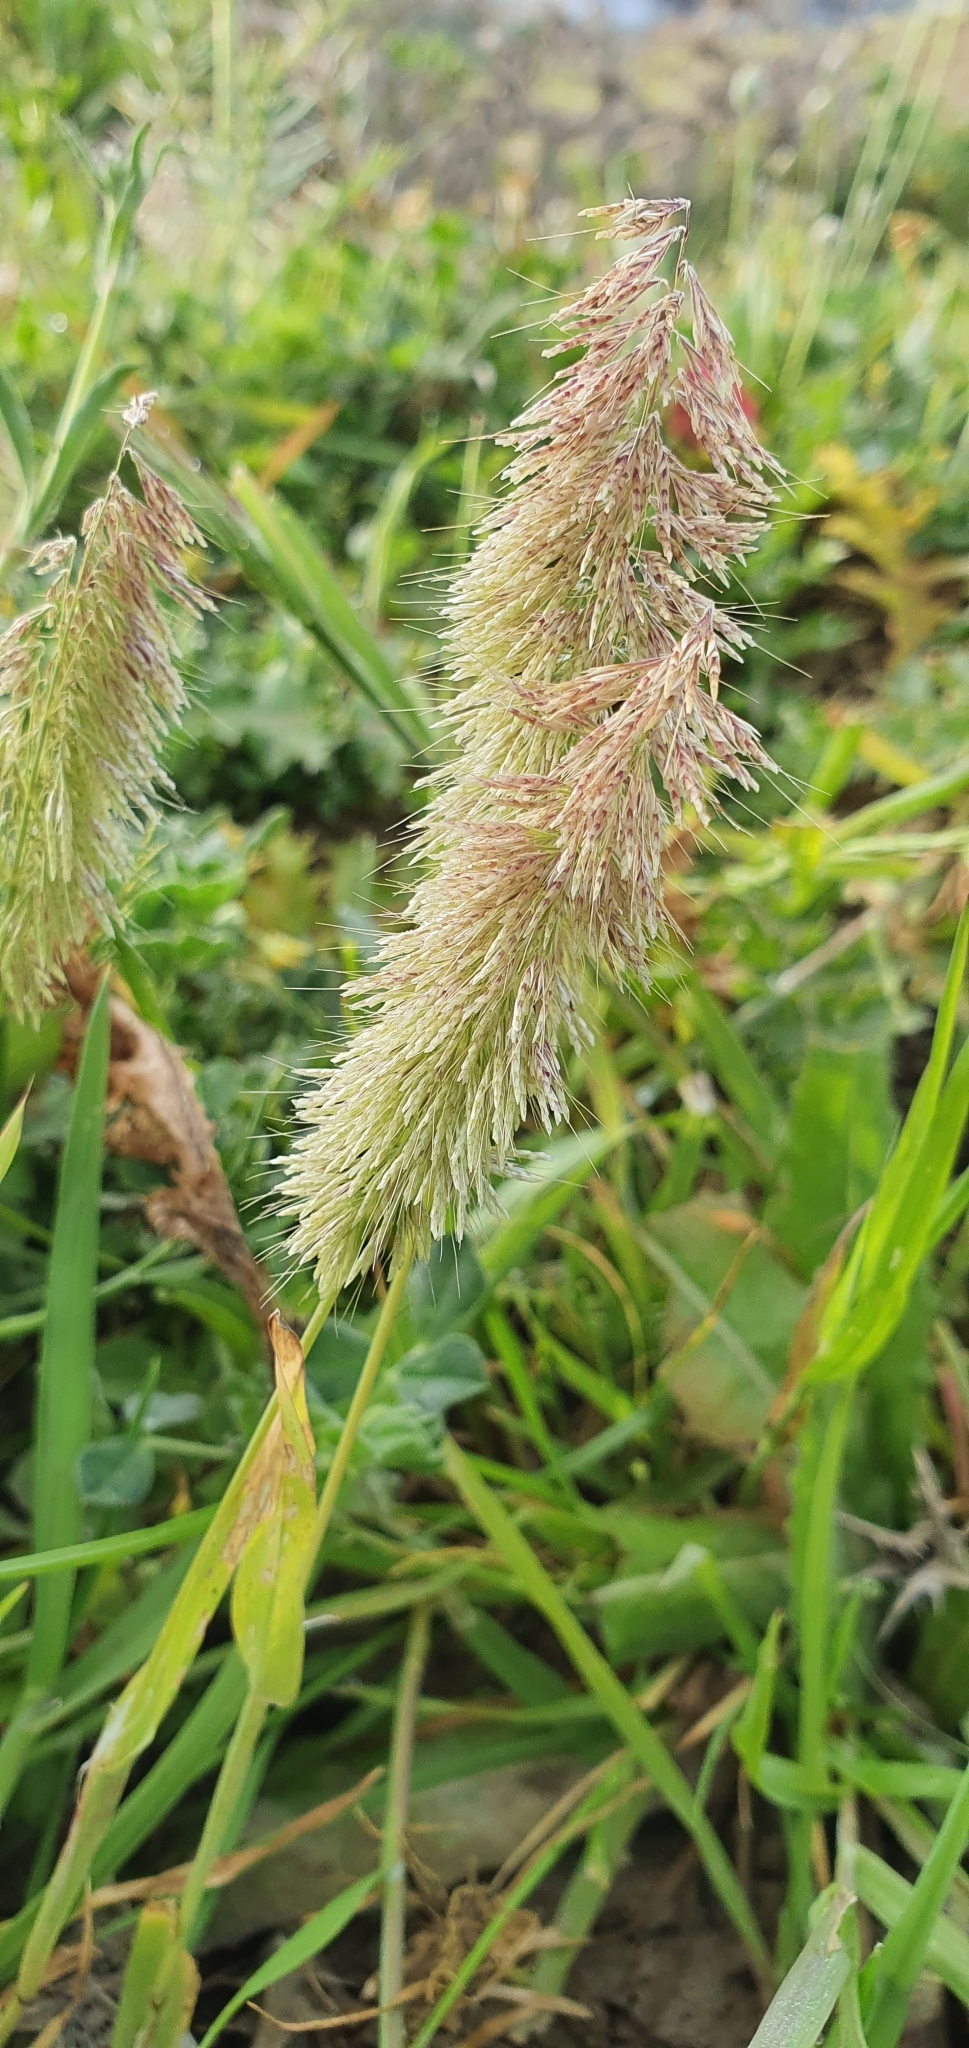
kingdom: Plantae
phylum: Tracheophyta
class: Liliopsida
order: Poales
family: Poaceae
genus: Lamarckia
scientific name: Lamarckia aurea
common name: Golden dog's-tail
